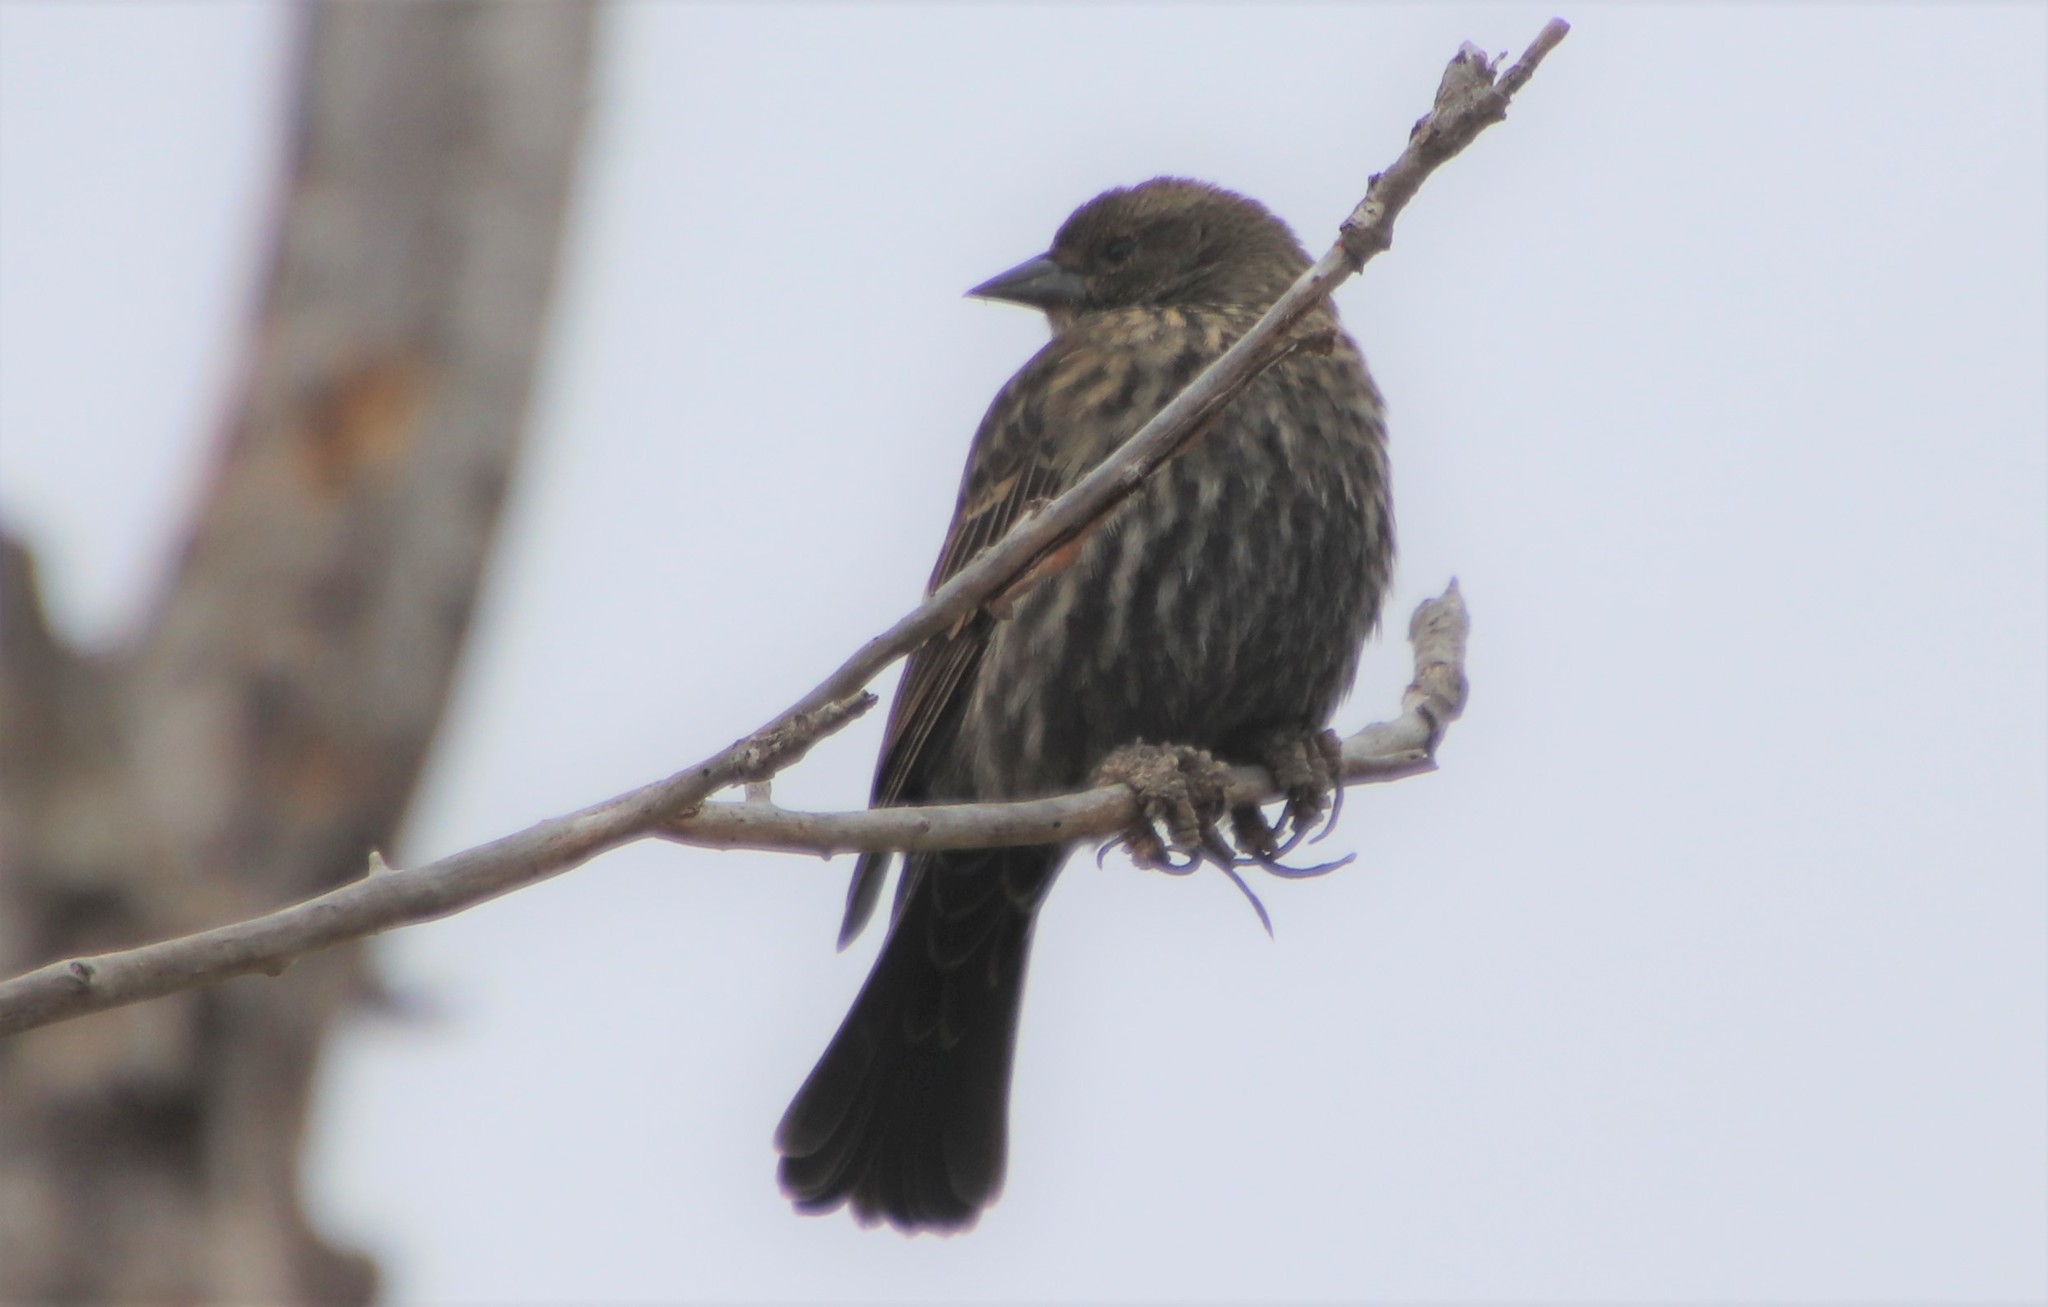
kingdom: Animalia
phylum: Chordata
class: Aves
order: Passeriformes
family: Icteridae
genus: Agelaius
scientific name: Agelaius phoeniceus
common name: Red-winged blackbird
